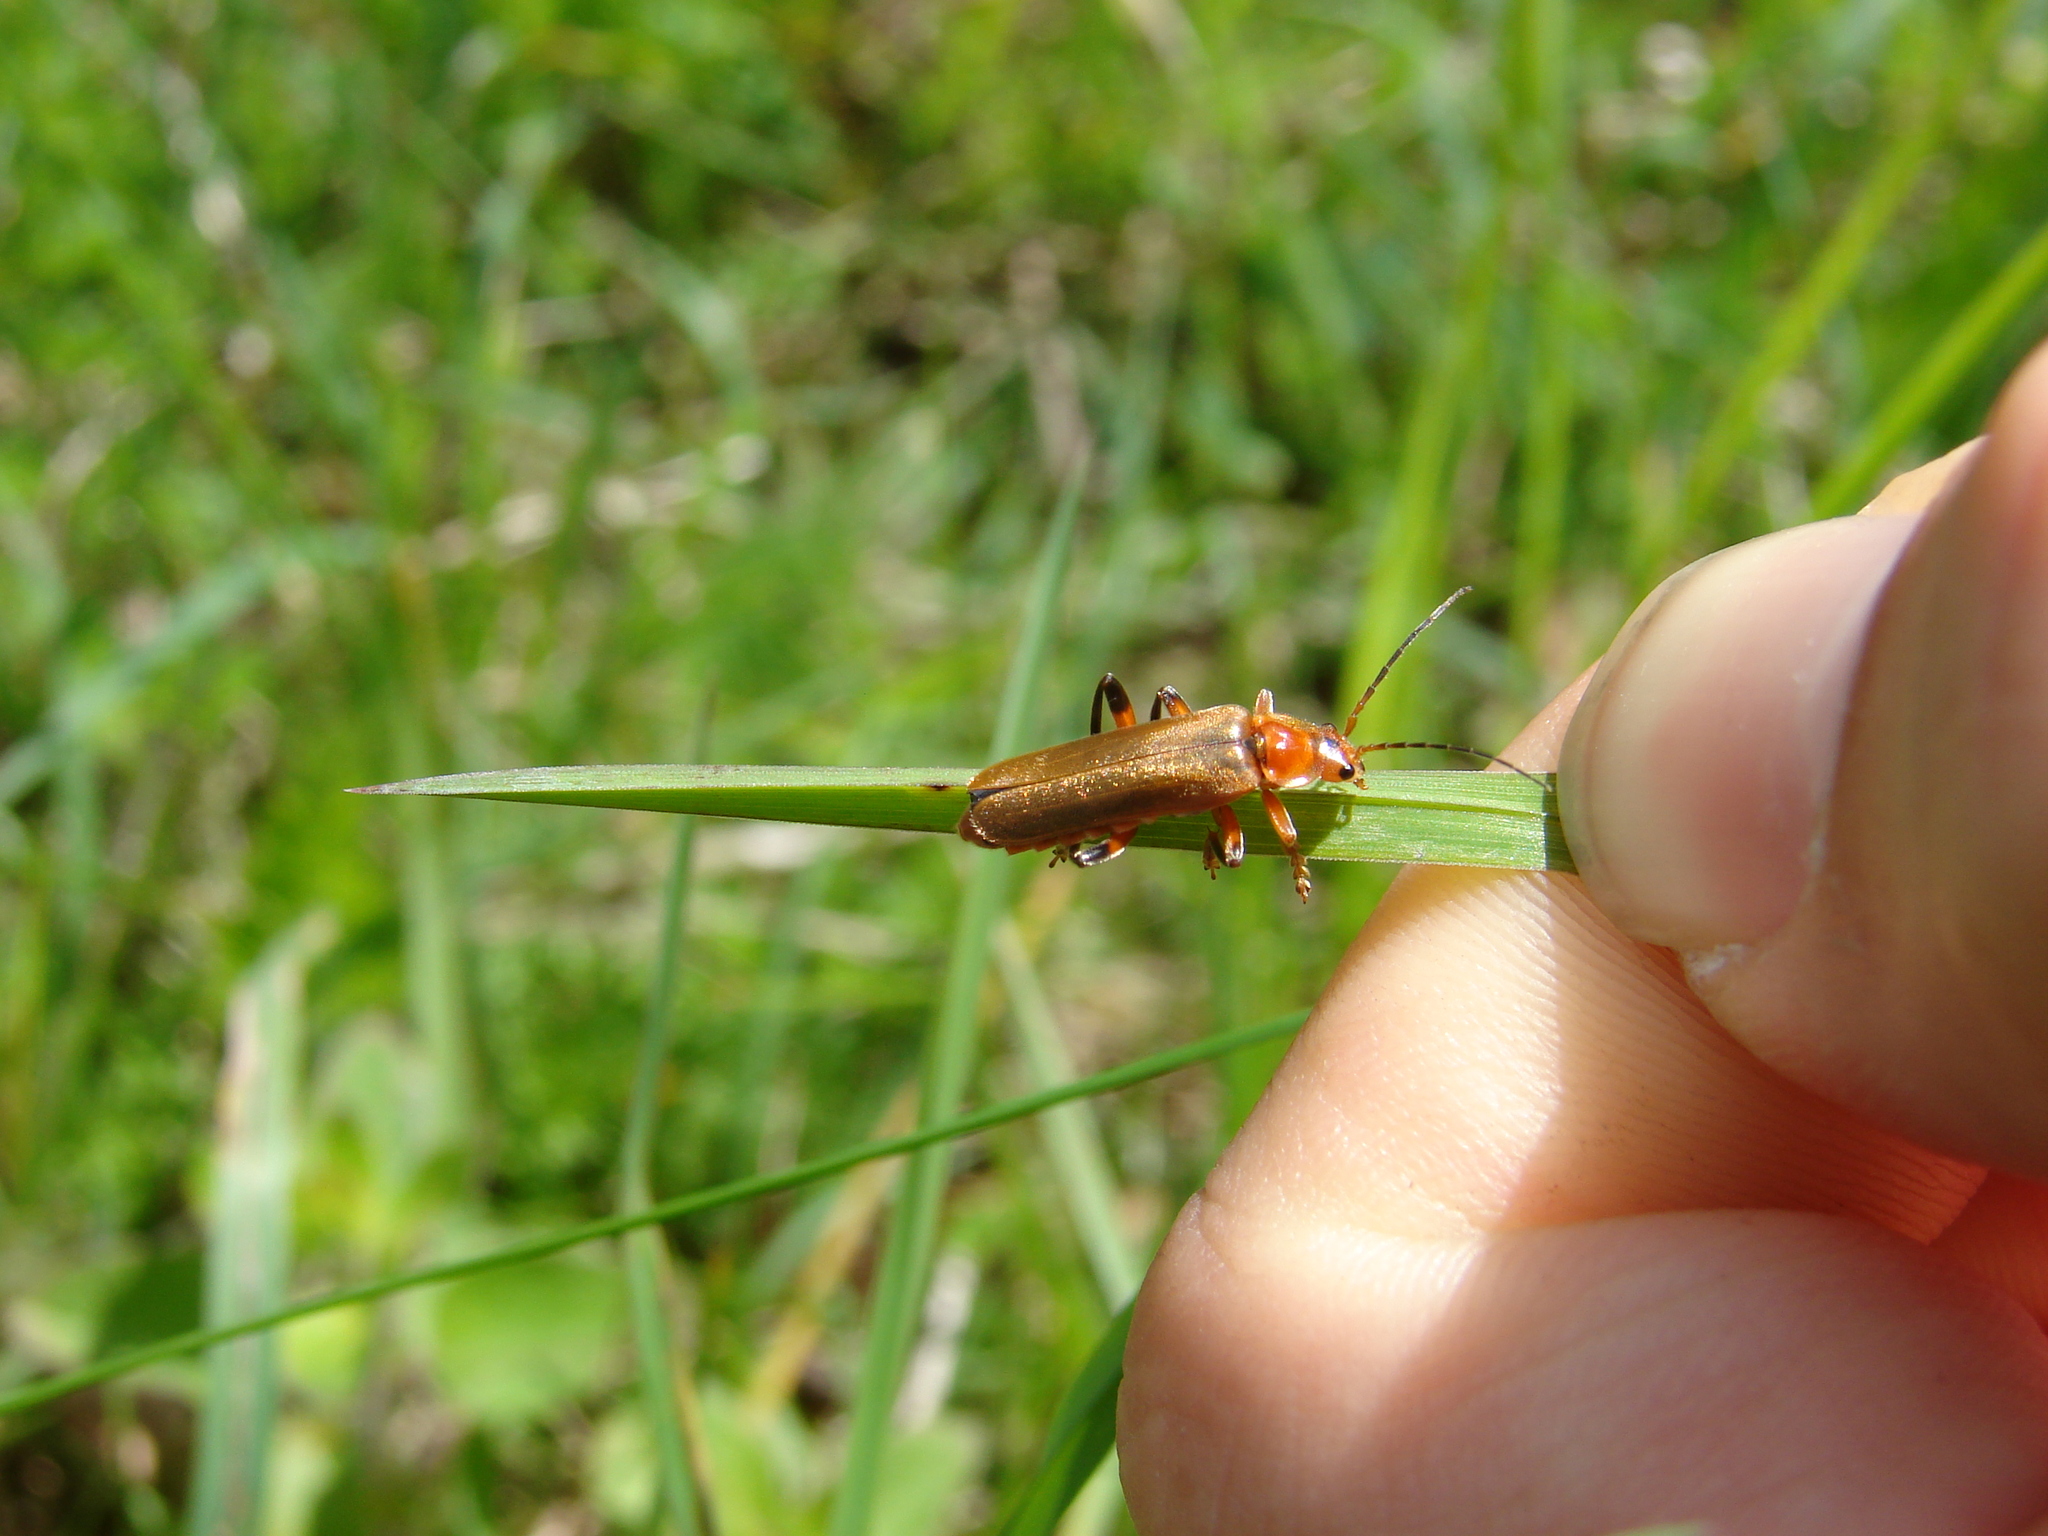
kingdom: Animalia
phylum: Arthropoda
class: Insecta
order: Coleoptera
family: Cantharidae
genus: Cantharis
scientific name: Cantharis livida
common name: Livid soldier beetle
